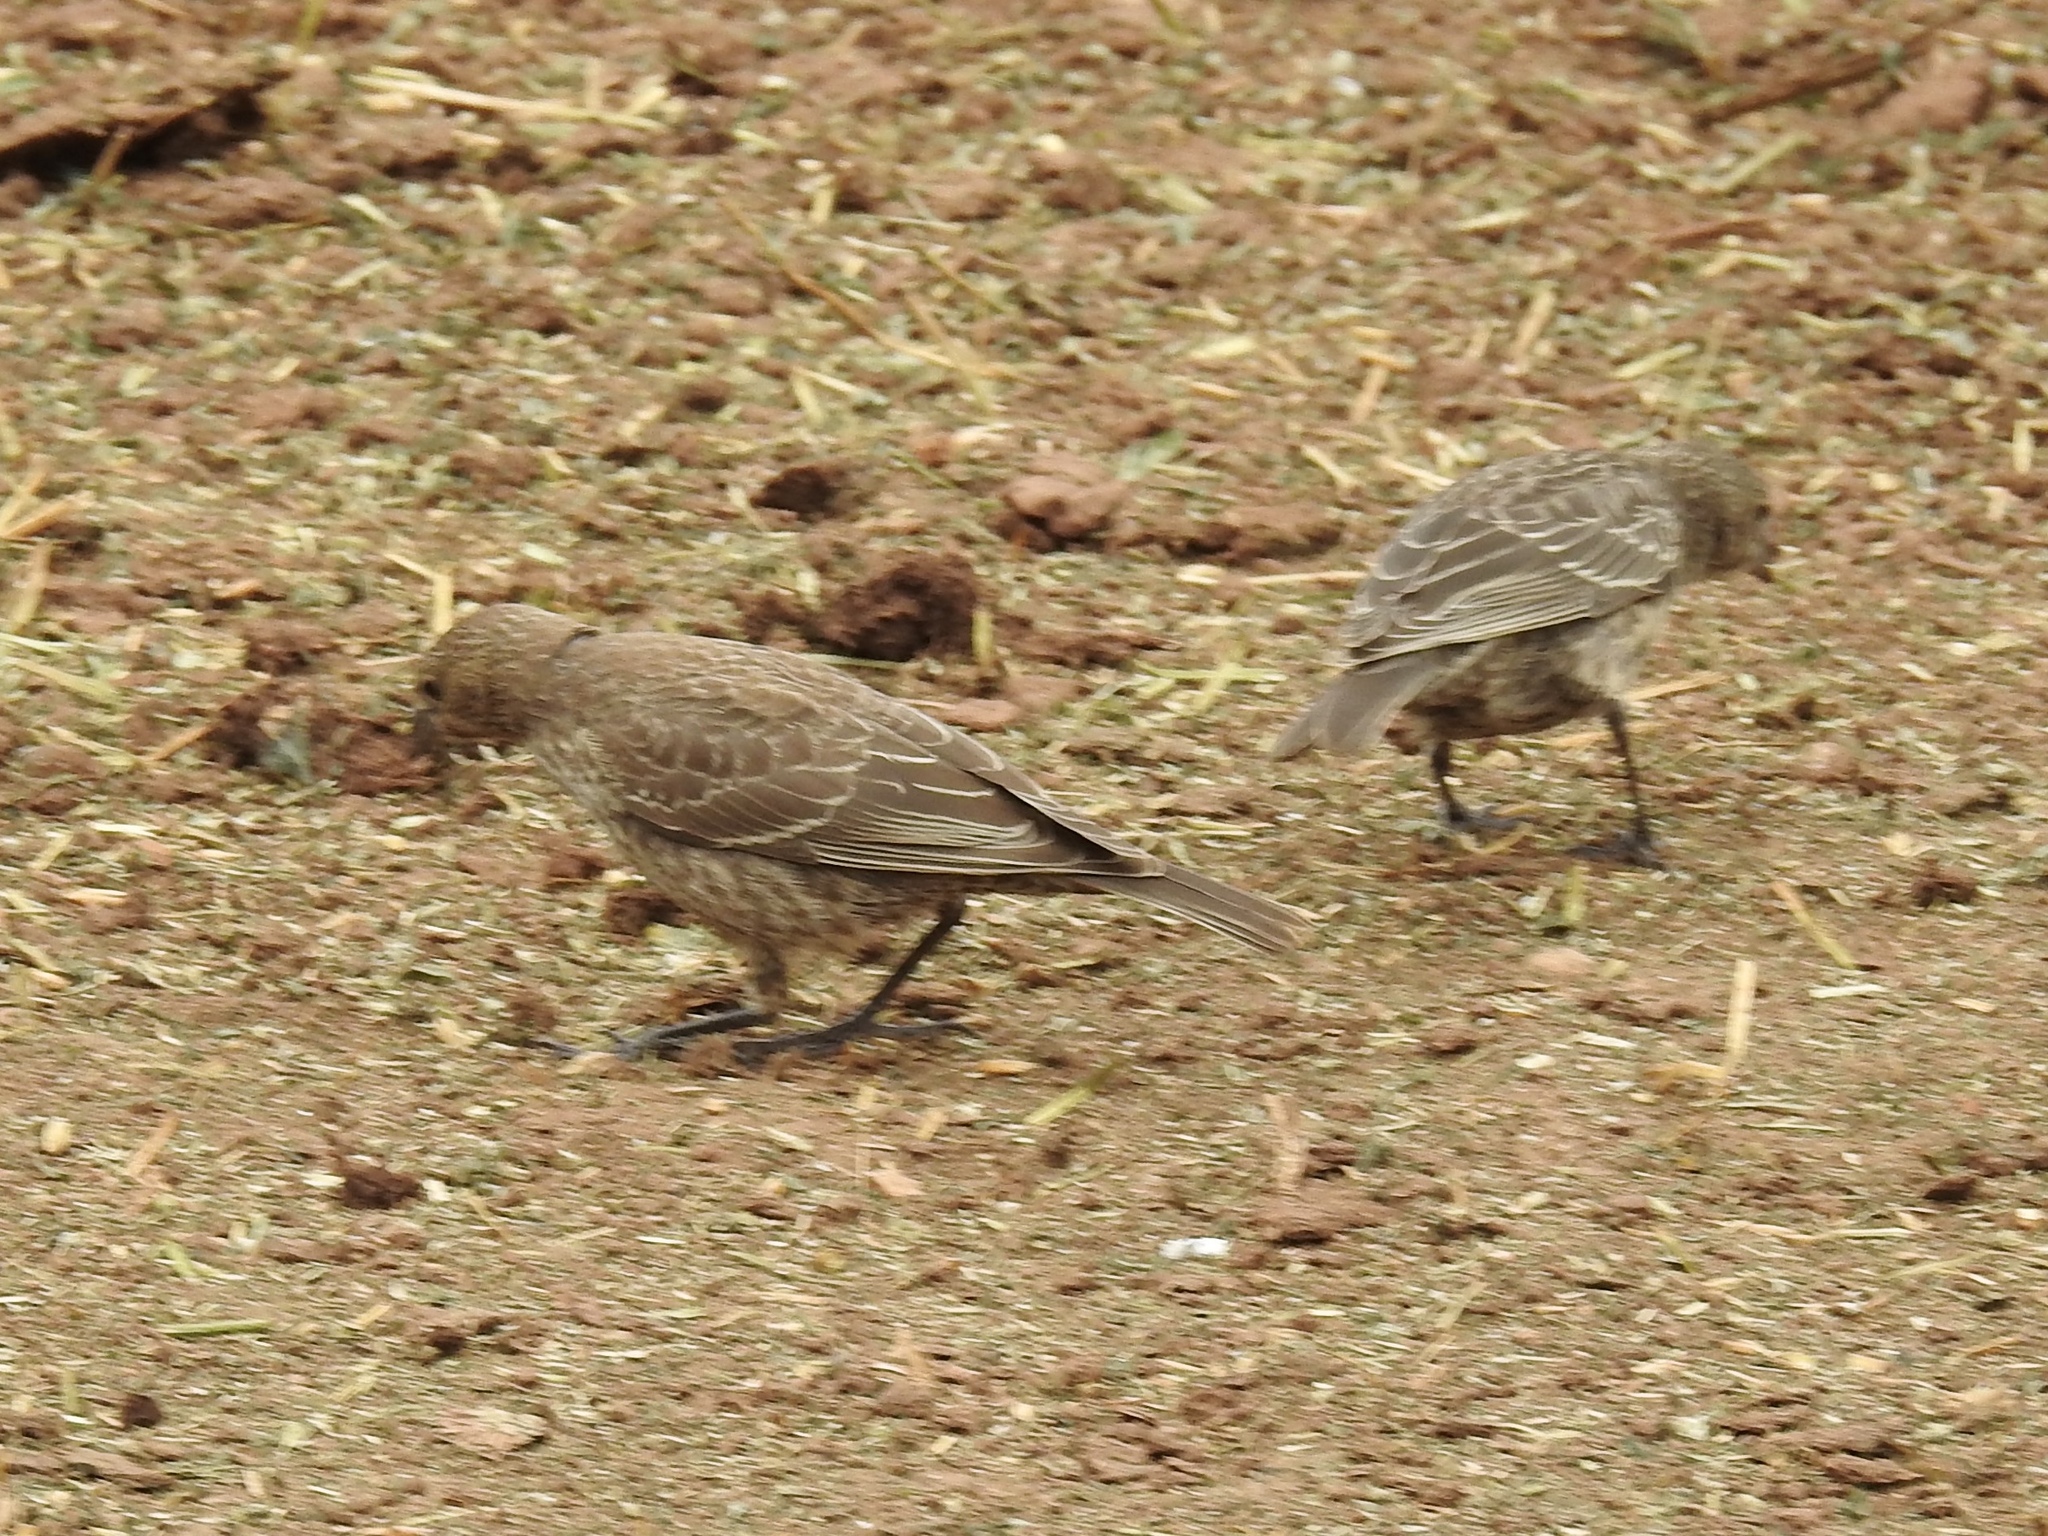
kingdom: Animalia
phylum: Chordata
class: Aves
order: Passeriformes
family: Icteridae
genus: Molothrus
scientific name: Molothrus ater
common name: Brown-headed cowbird
